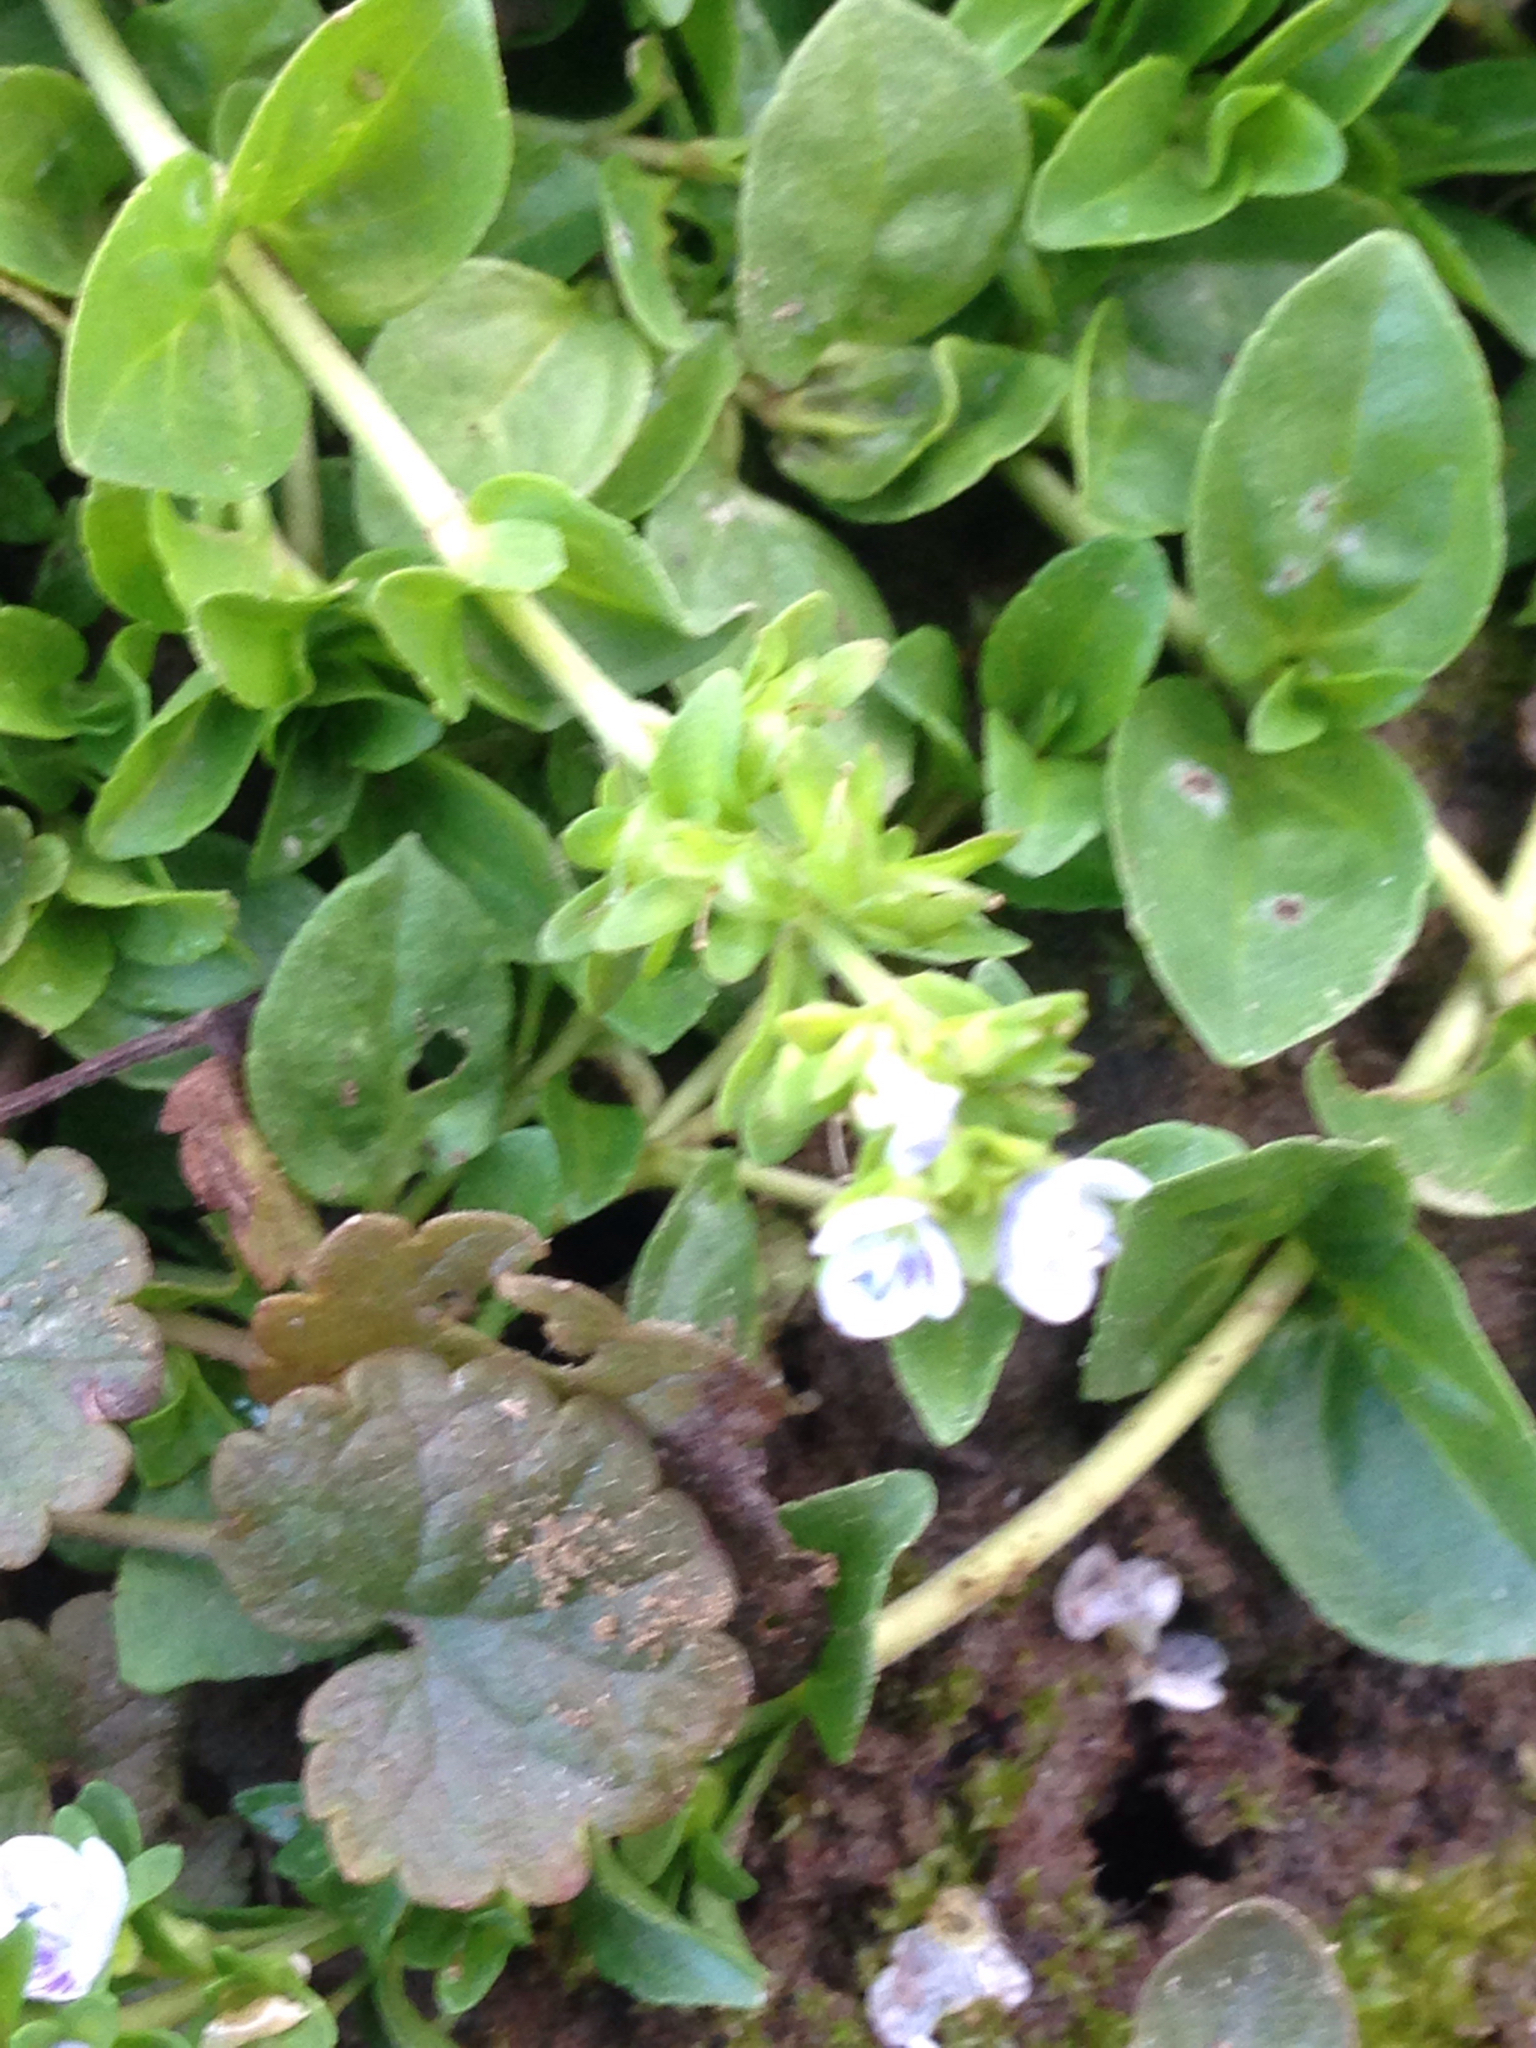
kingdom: Plantae
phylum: Tracheophyta
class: Magnoliopsida
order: Lamiales
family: Plantaginaceae
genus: Veronica
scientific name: Veronica serpyllifolia
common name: Thyme-leaved speedwell
